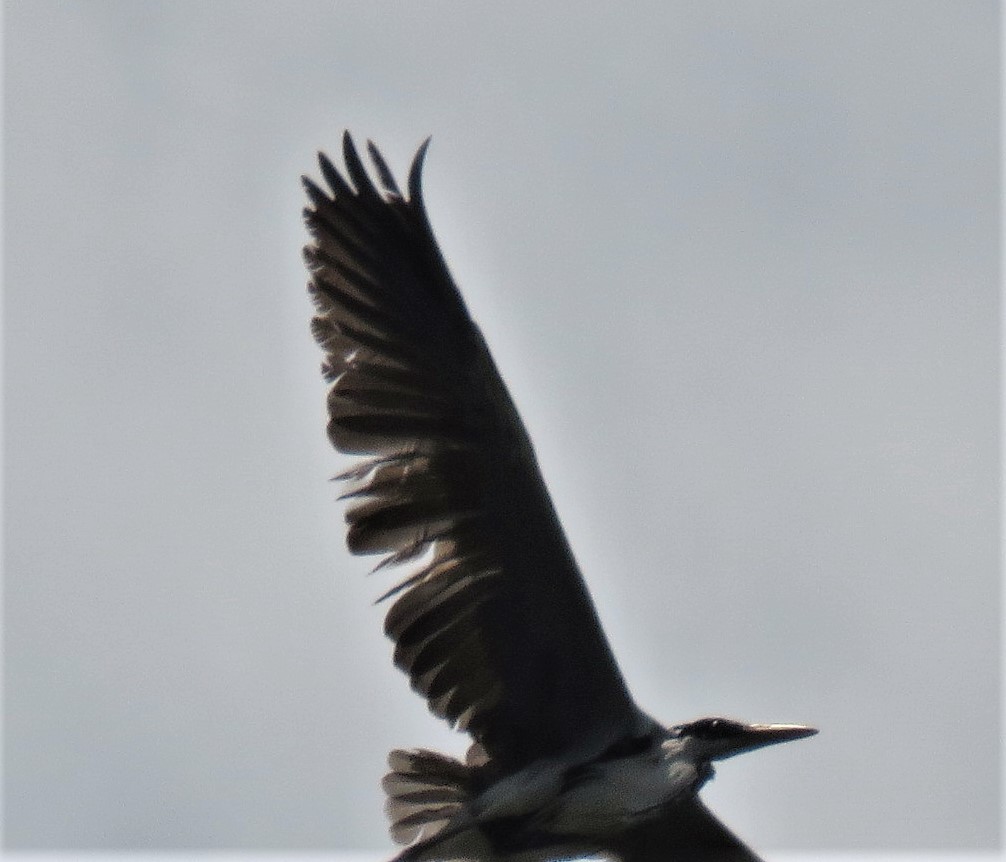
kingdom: Animalia
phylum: Chordata
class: Aves
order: Pelecaniformes
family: Ardeidae
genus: Ardea
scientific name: Ardea cocoi
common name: Cocoi heron
